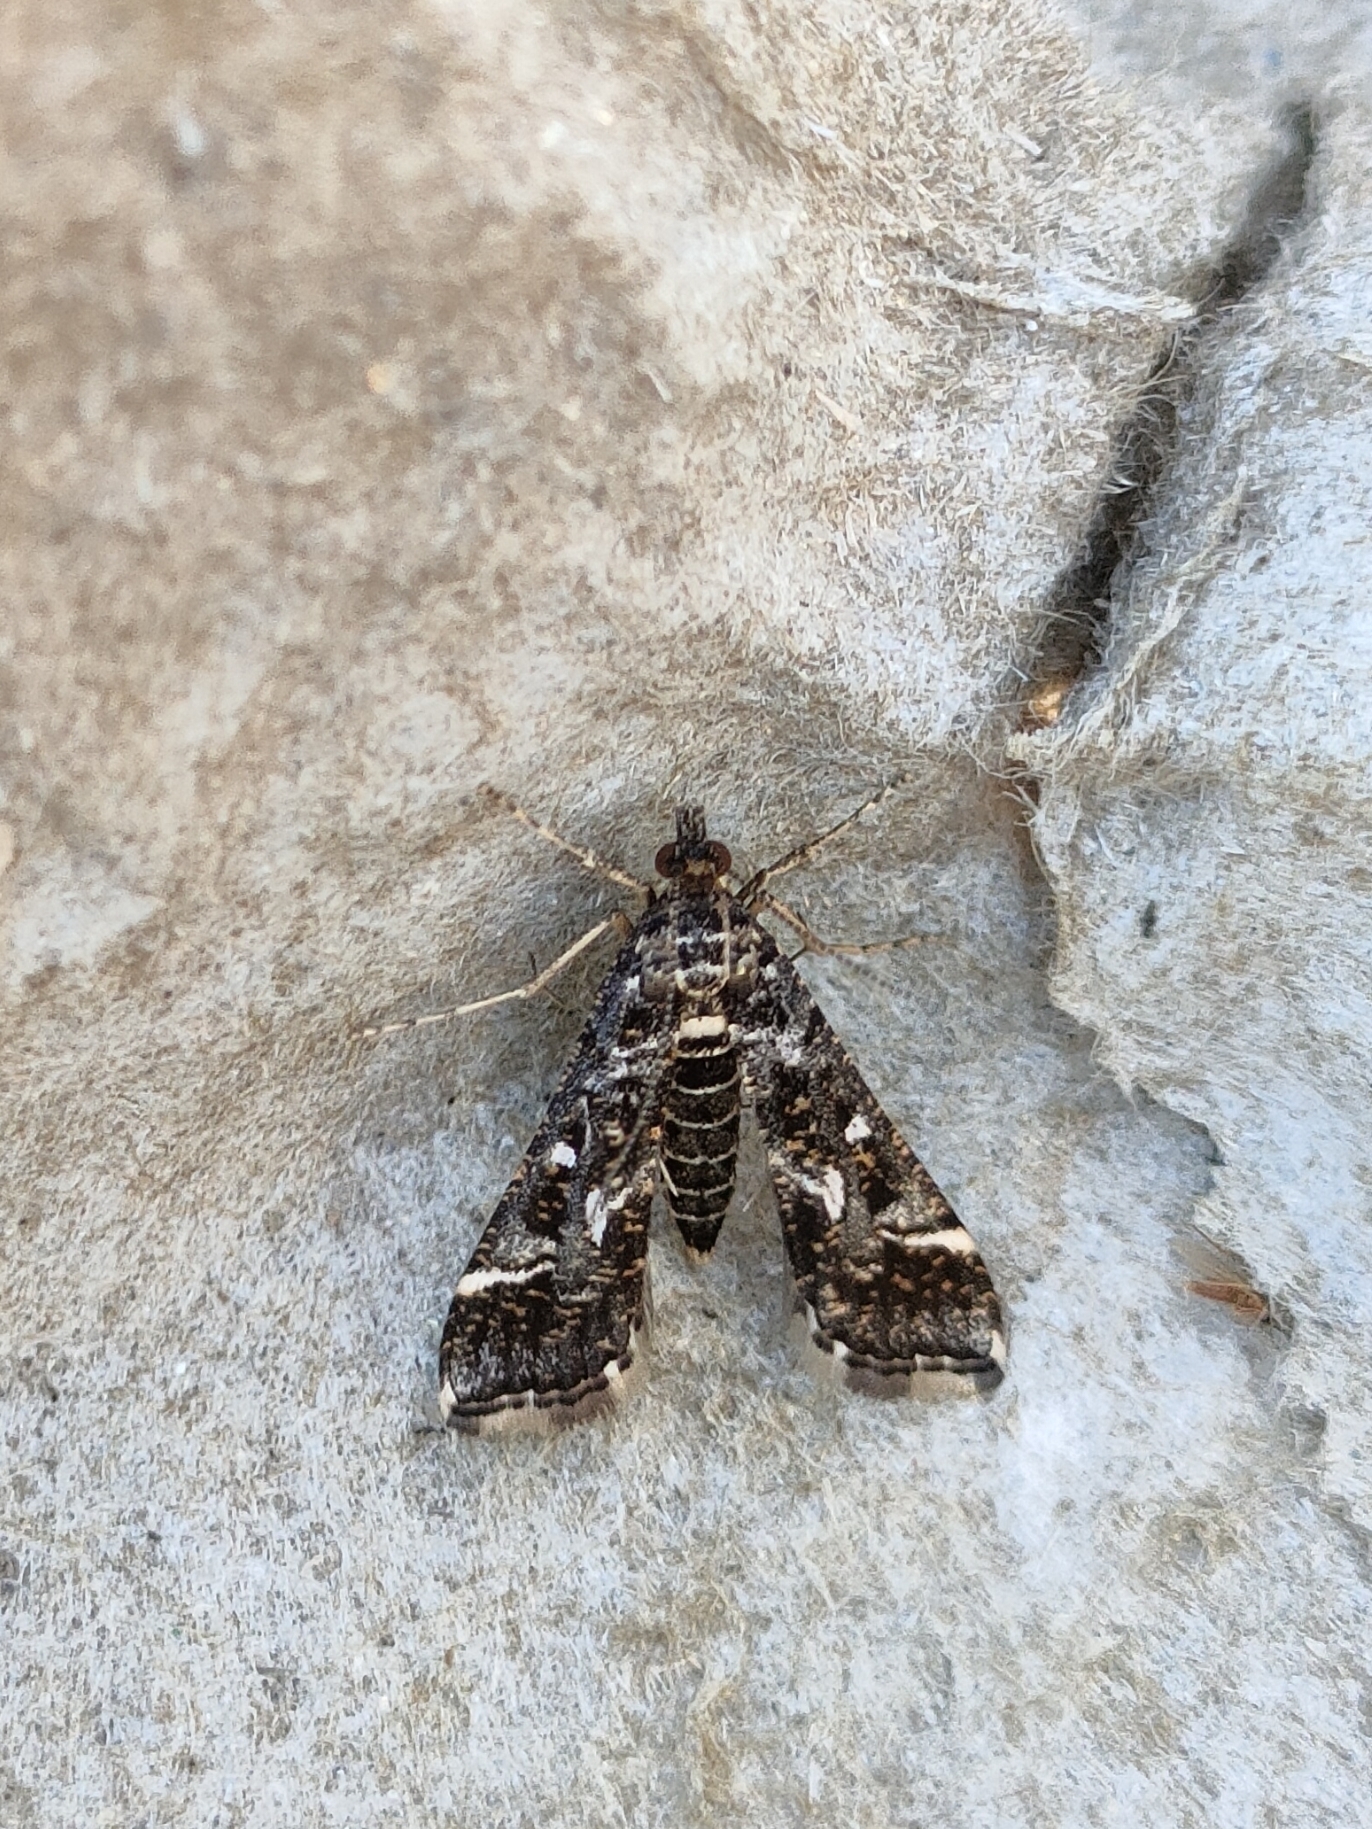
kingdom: Animalia
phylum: Arthropoda
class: Insecta
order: Lepidoptera
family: Crambidae
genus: Diasemiopsis
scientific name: Diasemiopsis ramburialis
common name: Vagrant china-mark
